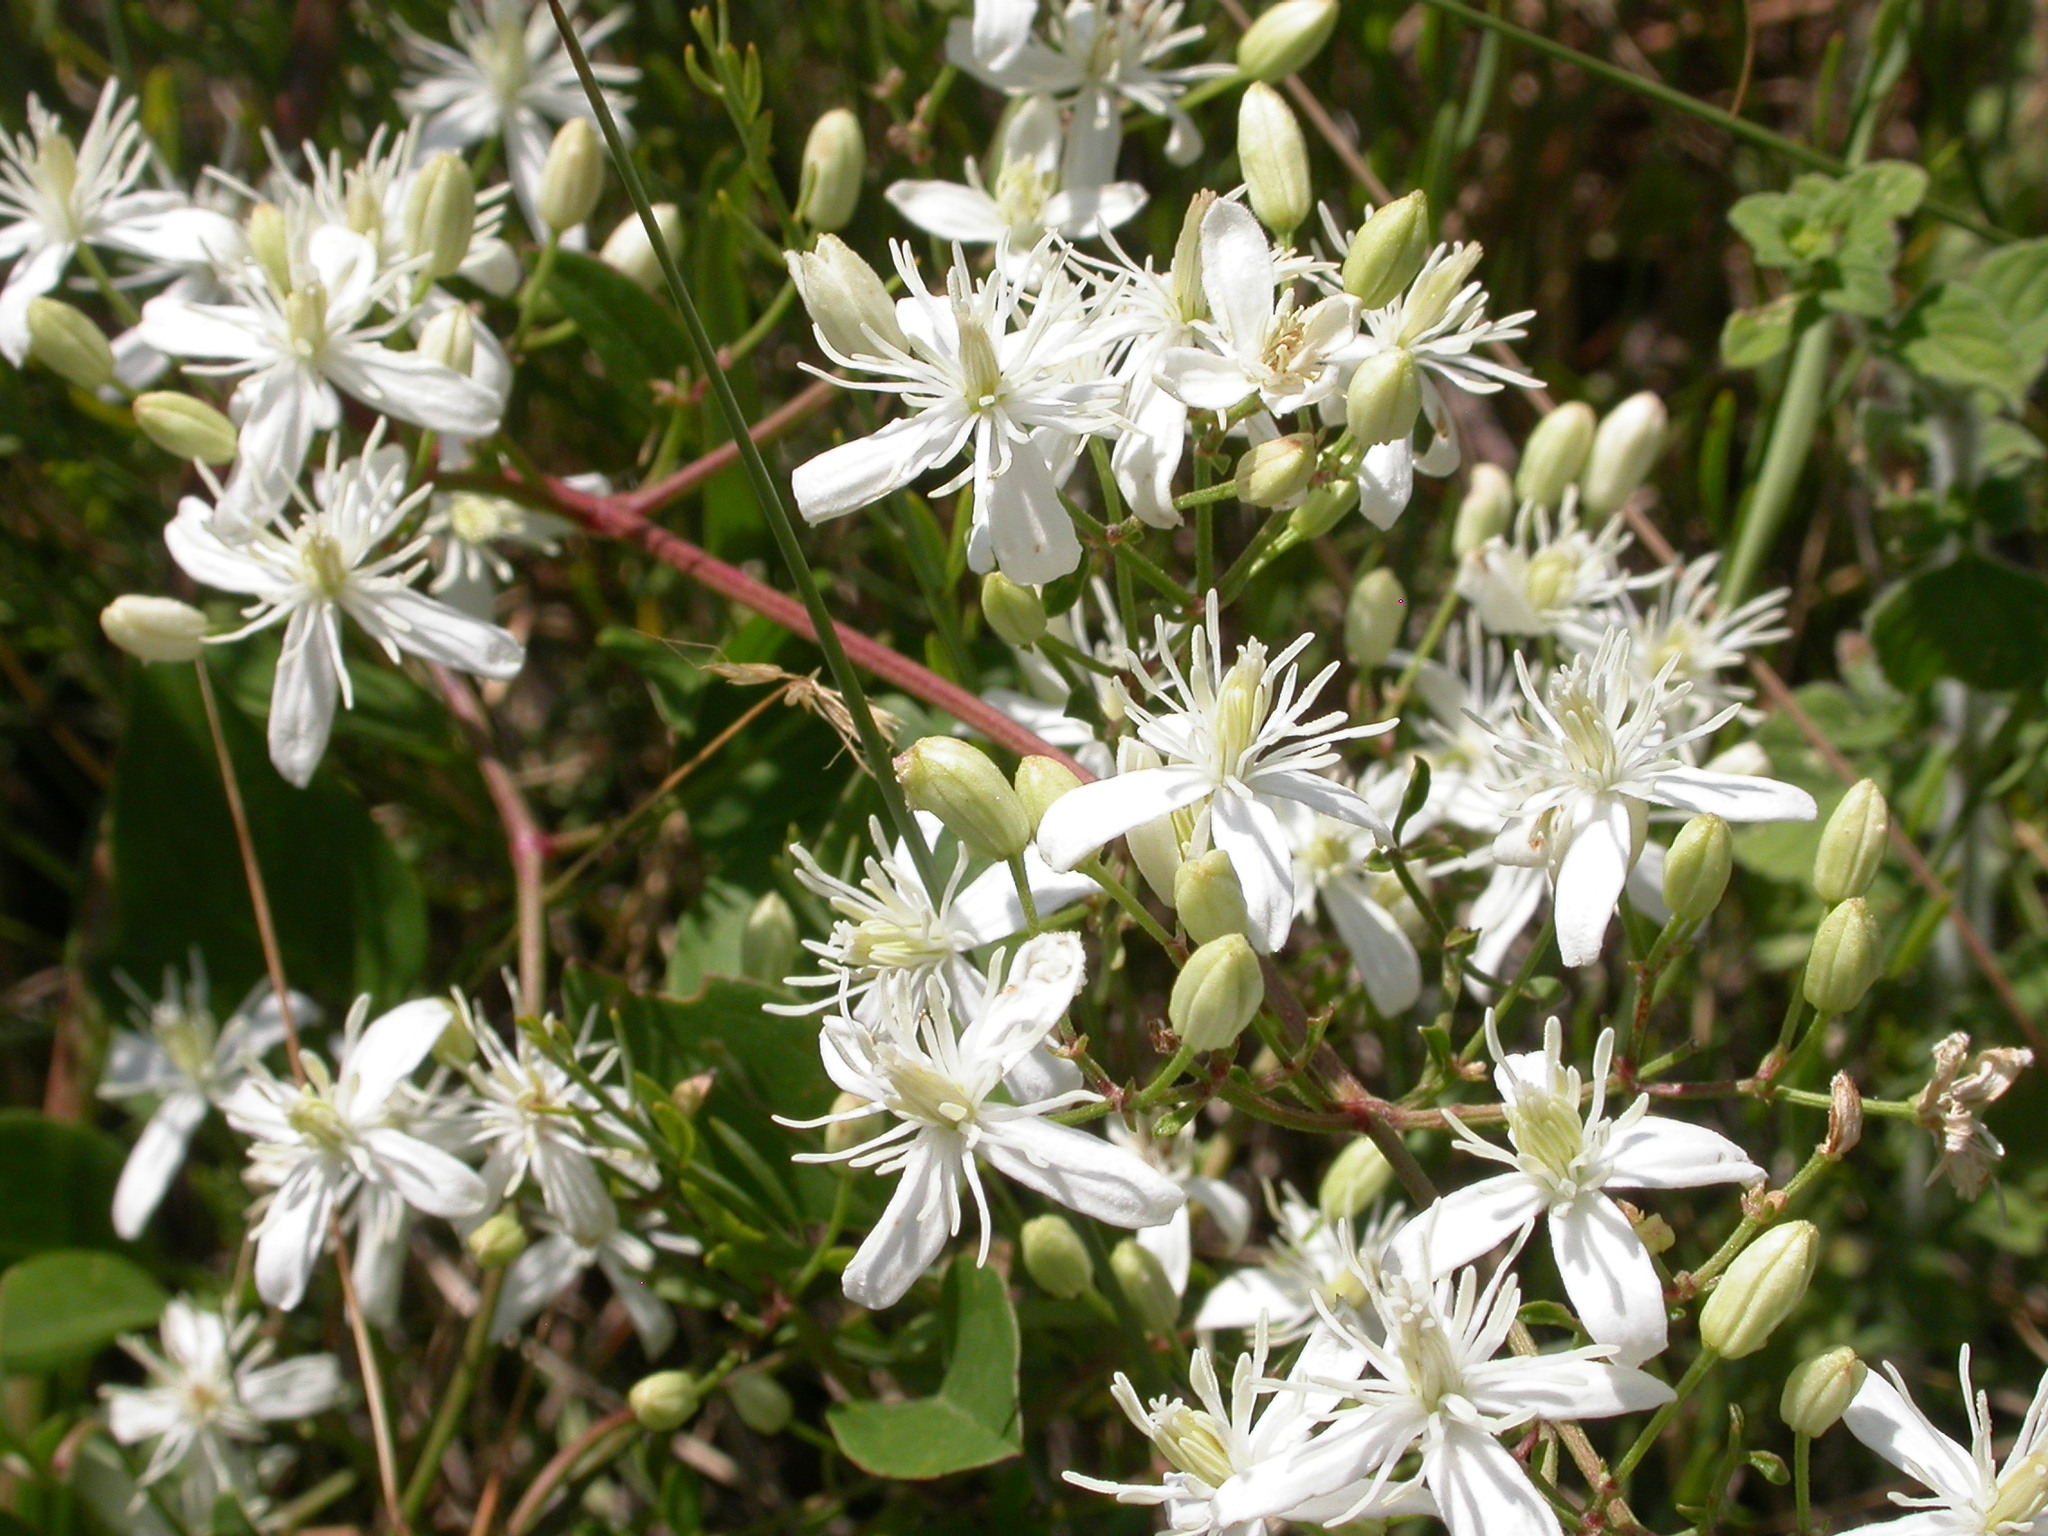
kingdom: Plantae
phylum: Tracheophyta
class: Magnoliopsida
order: Ranunculales
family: Ranunculaceae
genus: Clematis
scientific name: Clematis flammula
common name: Virgin's-bower
